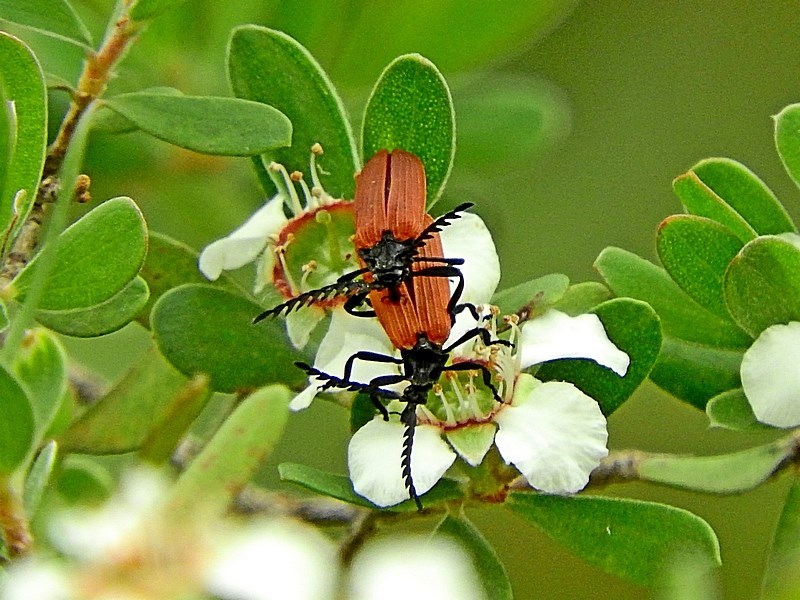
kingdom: Animalia
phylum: Arthropoda
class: Insecta
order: Coleoptera
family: Lycidae
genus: Porrostoma
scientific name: Porrostoma rhipidium
